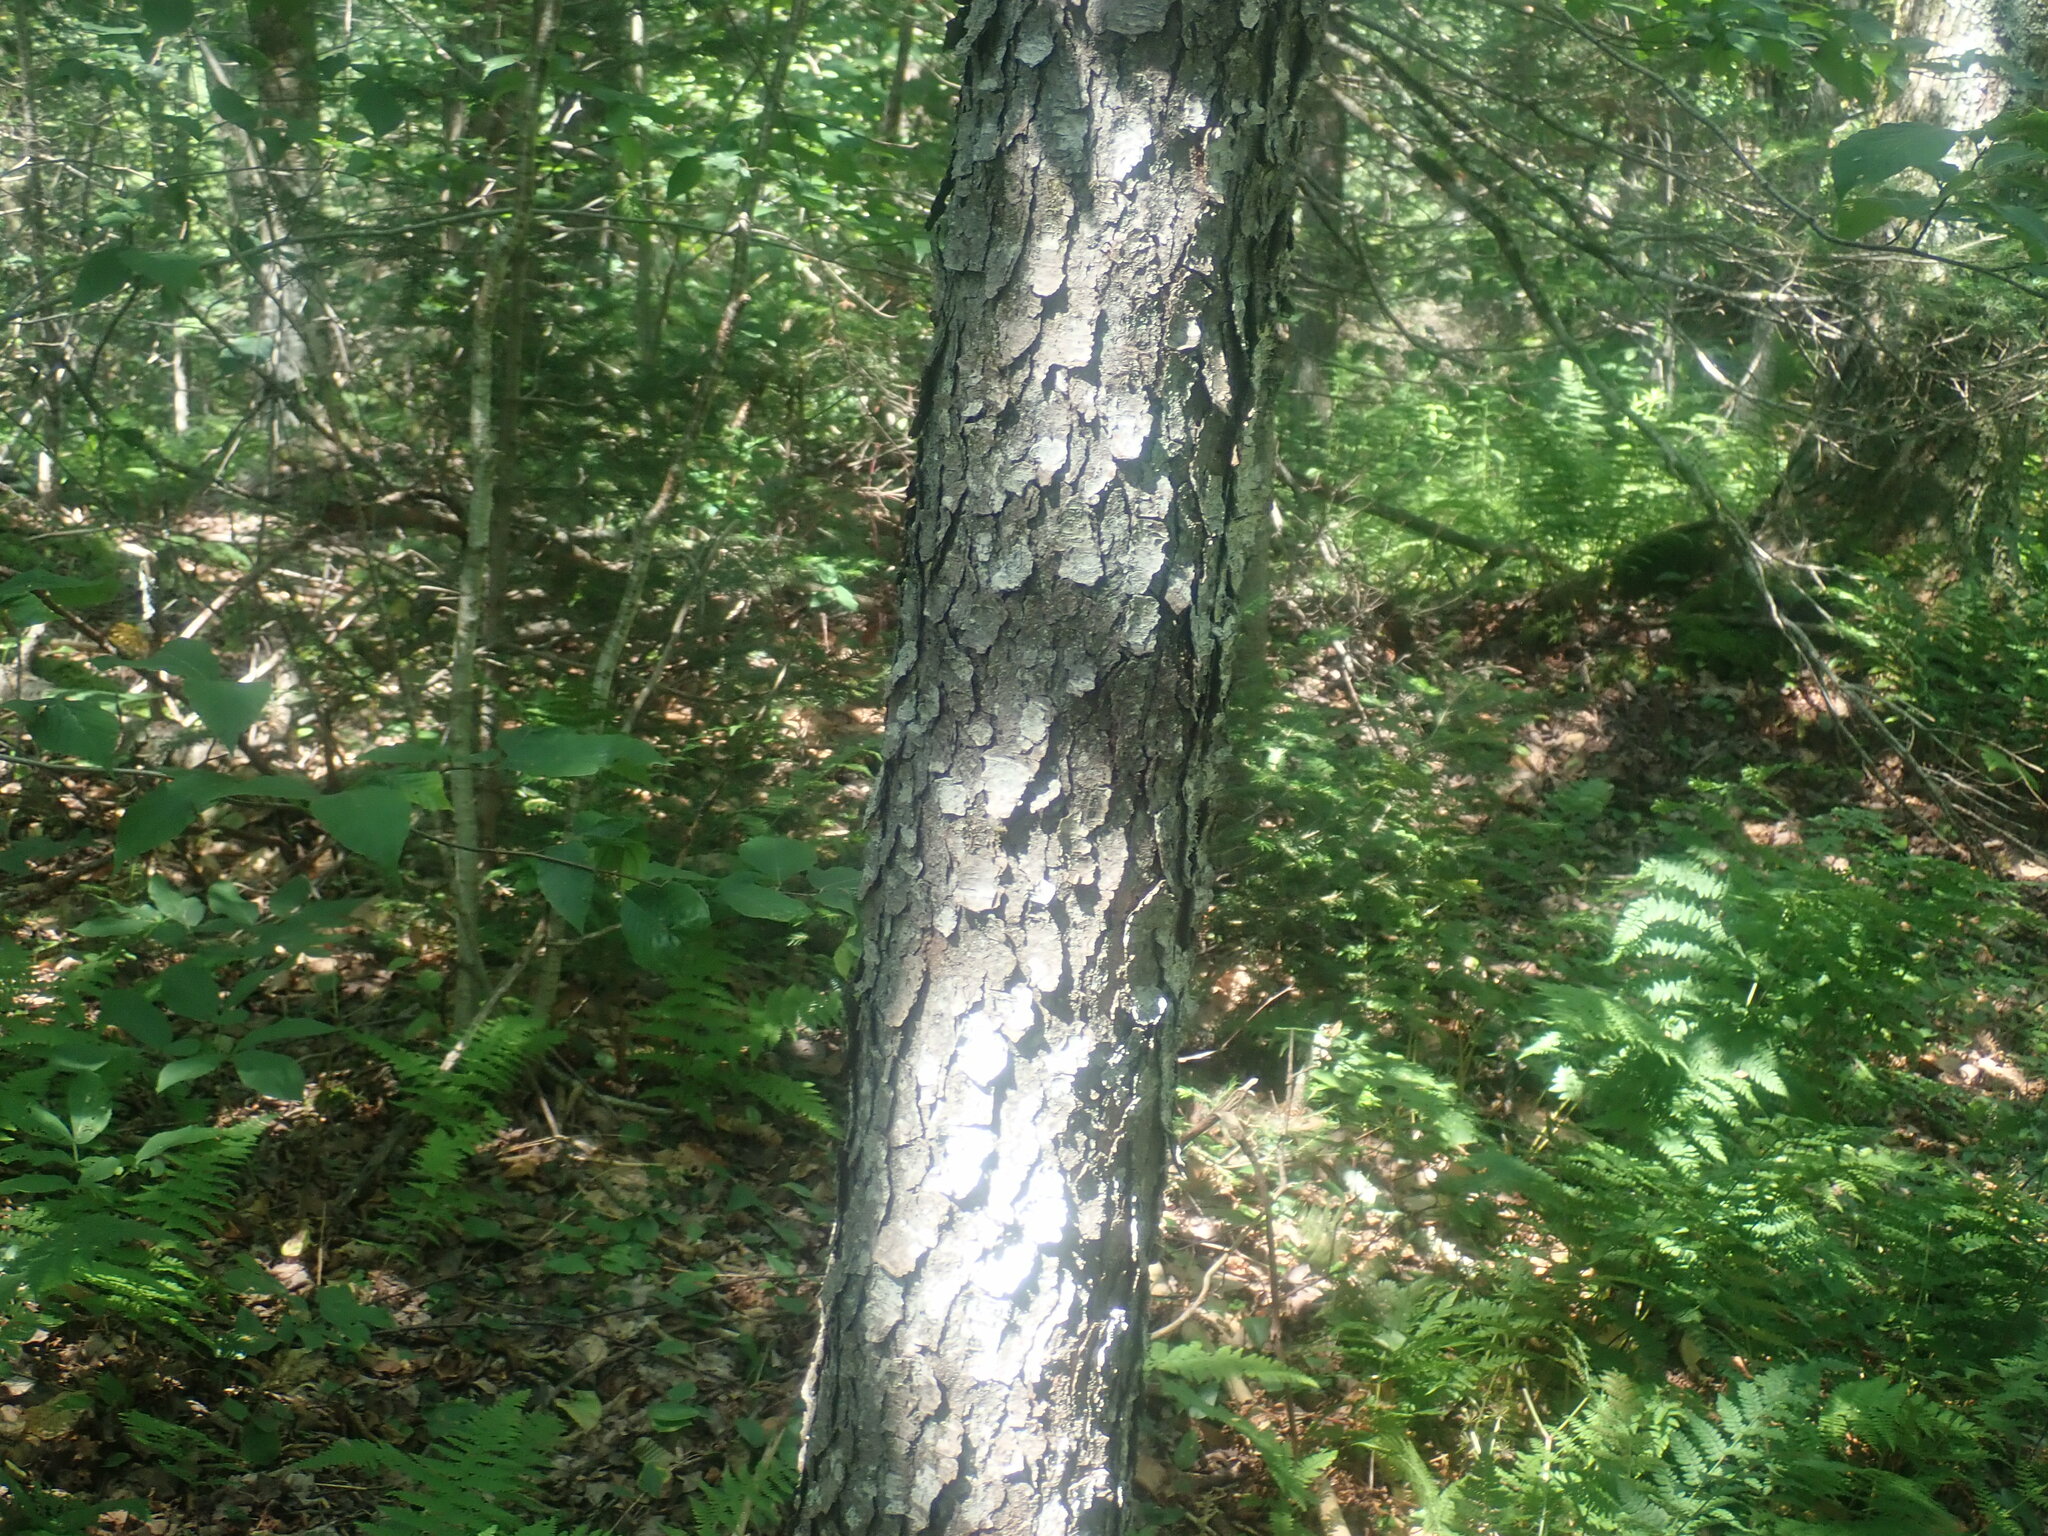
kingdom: Plantae
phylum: Tracheophyta
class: Magnoliopsida
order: Rosales
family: Rosaceae
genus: Prunus
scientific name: Prunus serotina
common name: Black cherry
